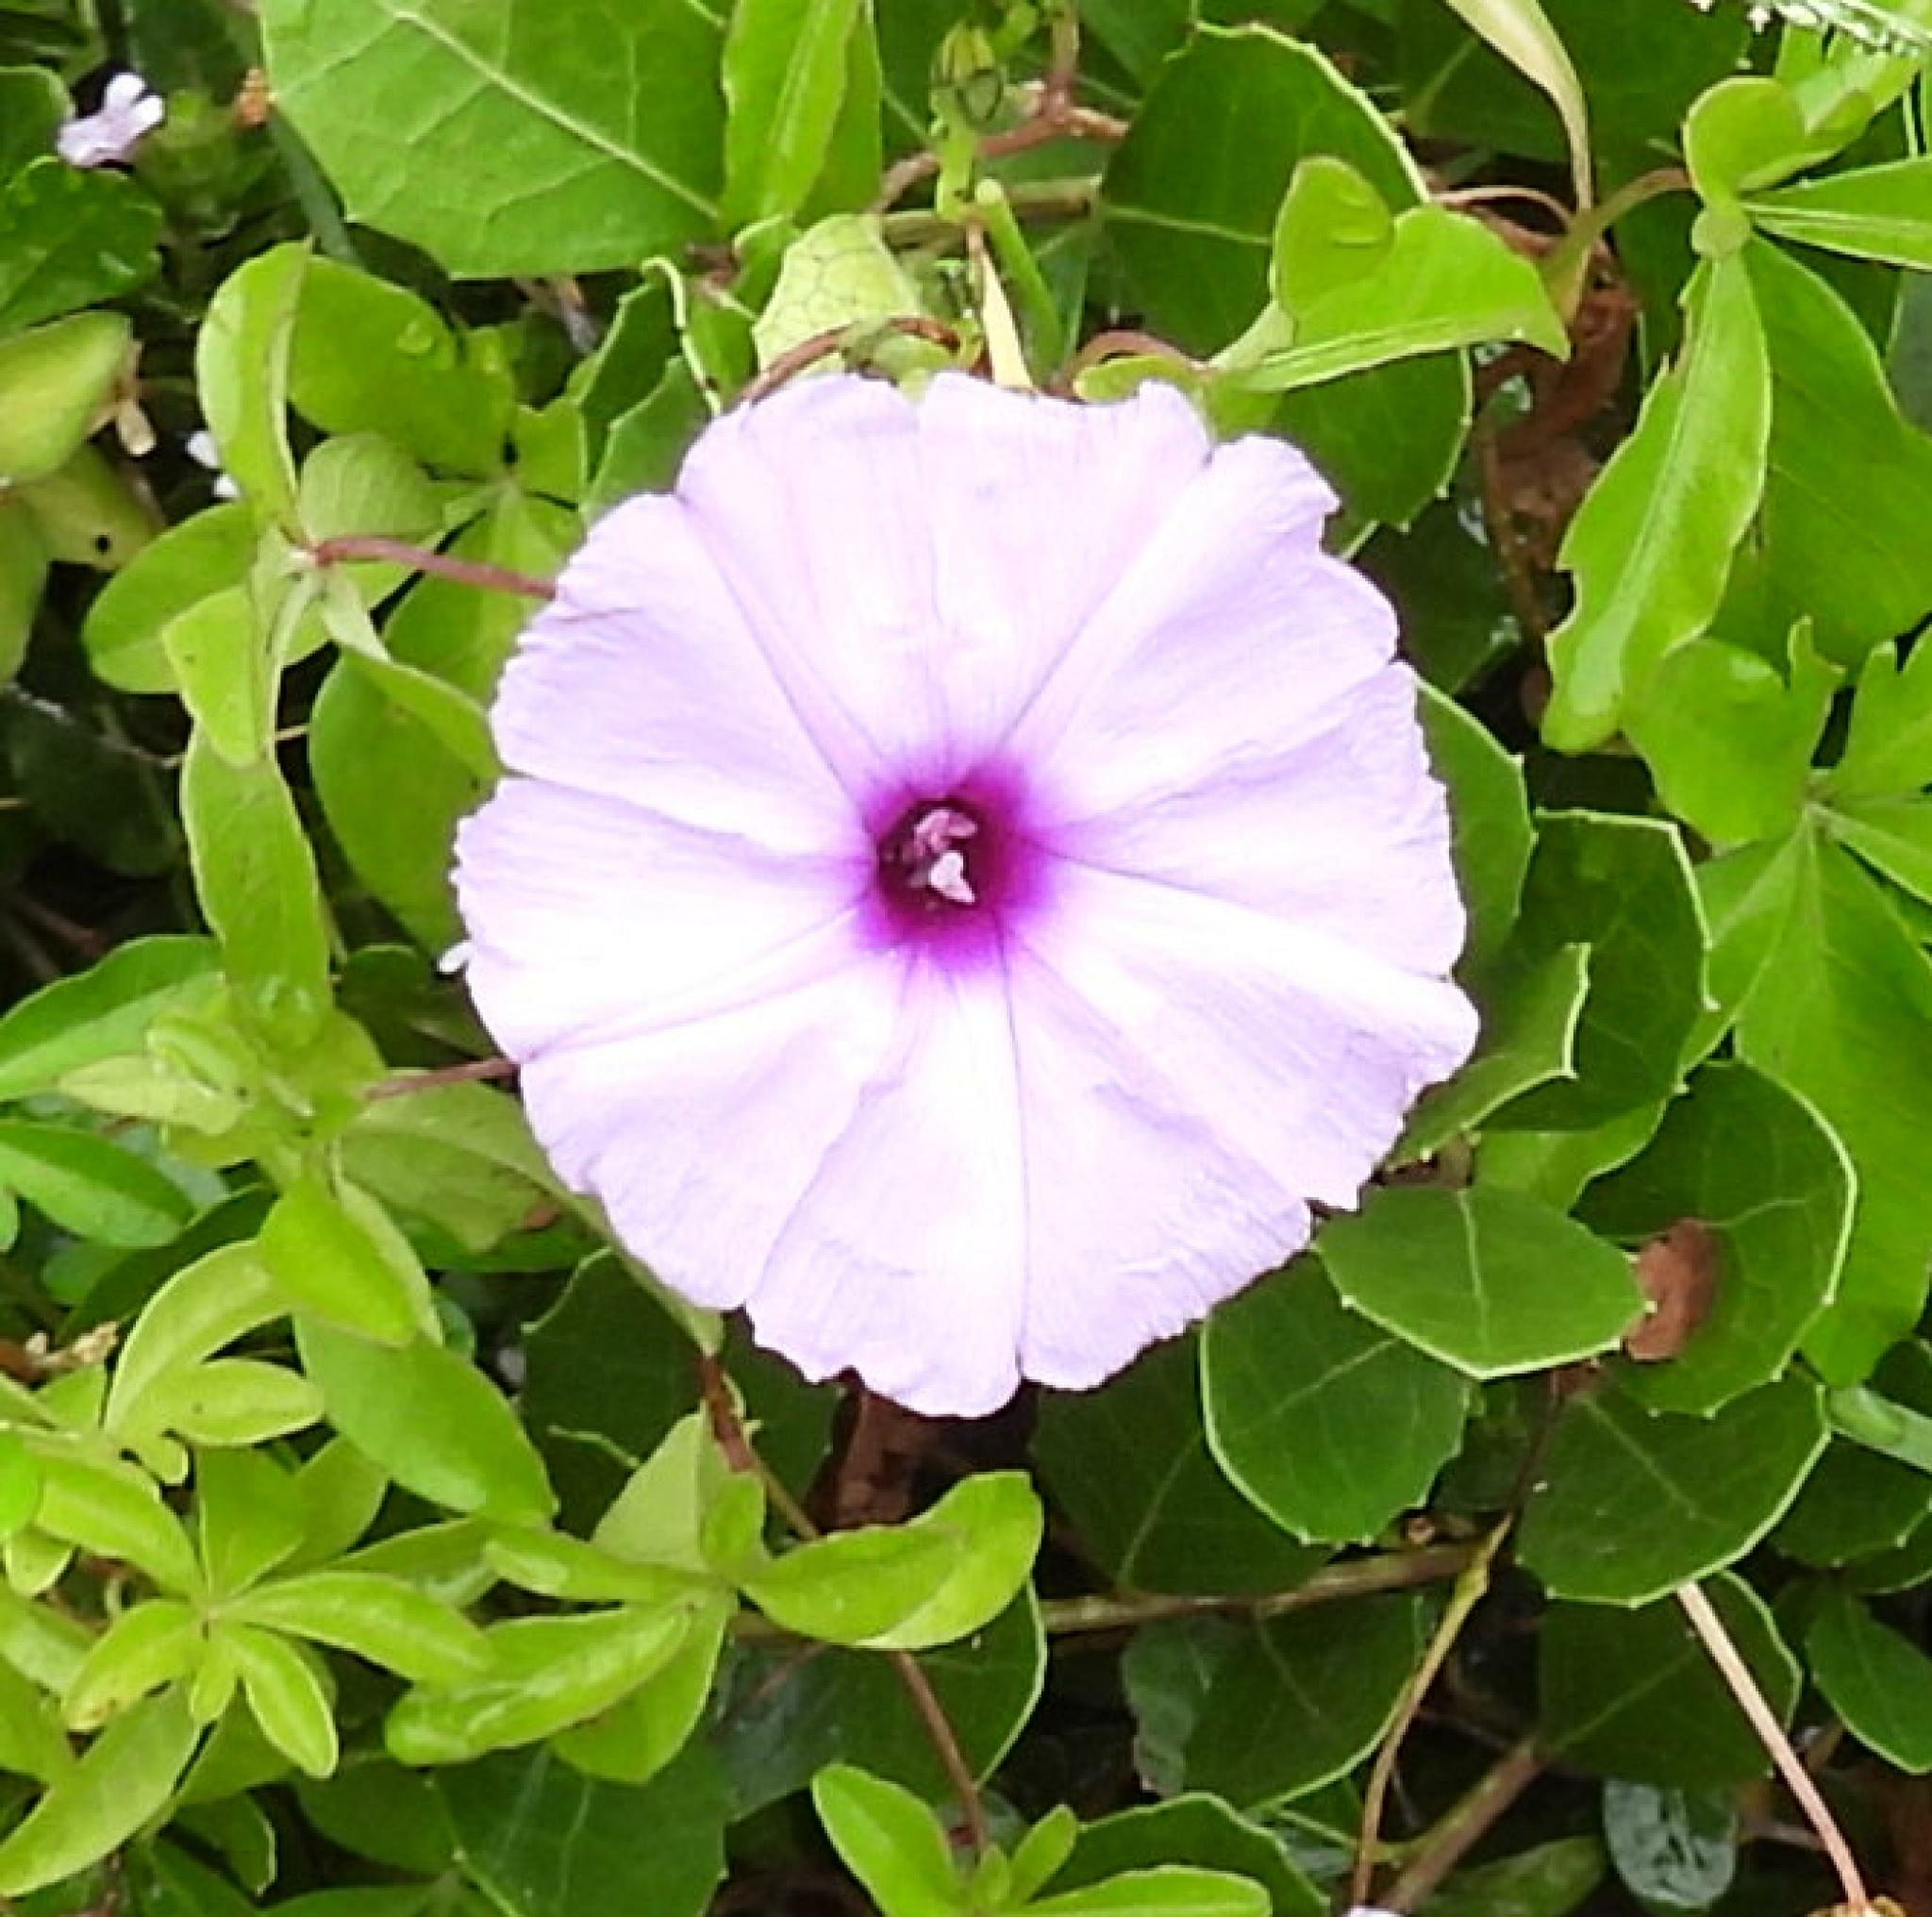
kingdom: Plantae
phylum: Tracheophyta
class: Magnoliopsida
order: Solanales
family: Convolvulaceae
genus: Ipomoea
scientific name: Ipomoea cairica
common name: Mile a minute vine
